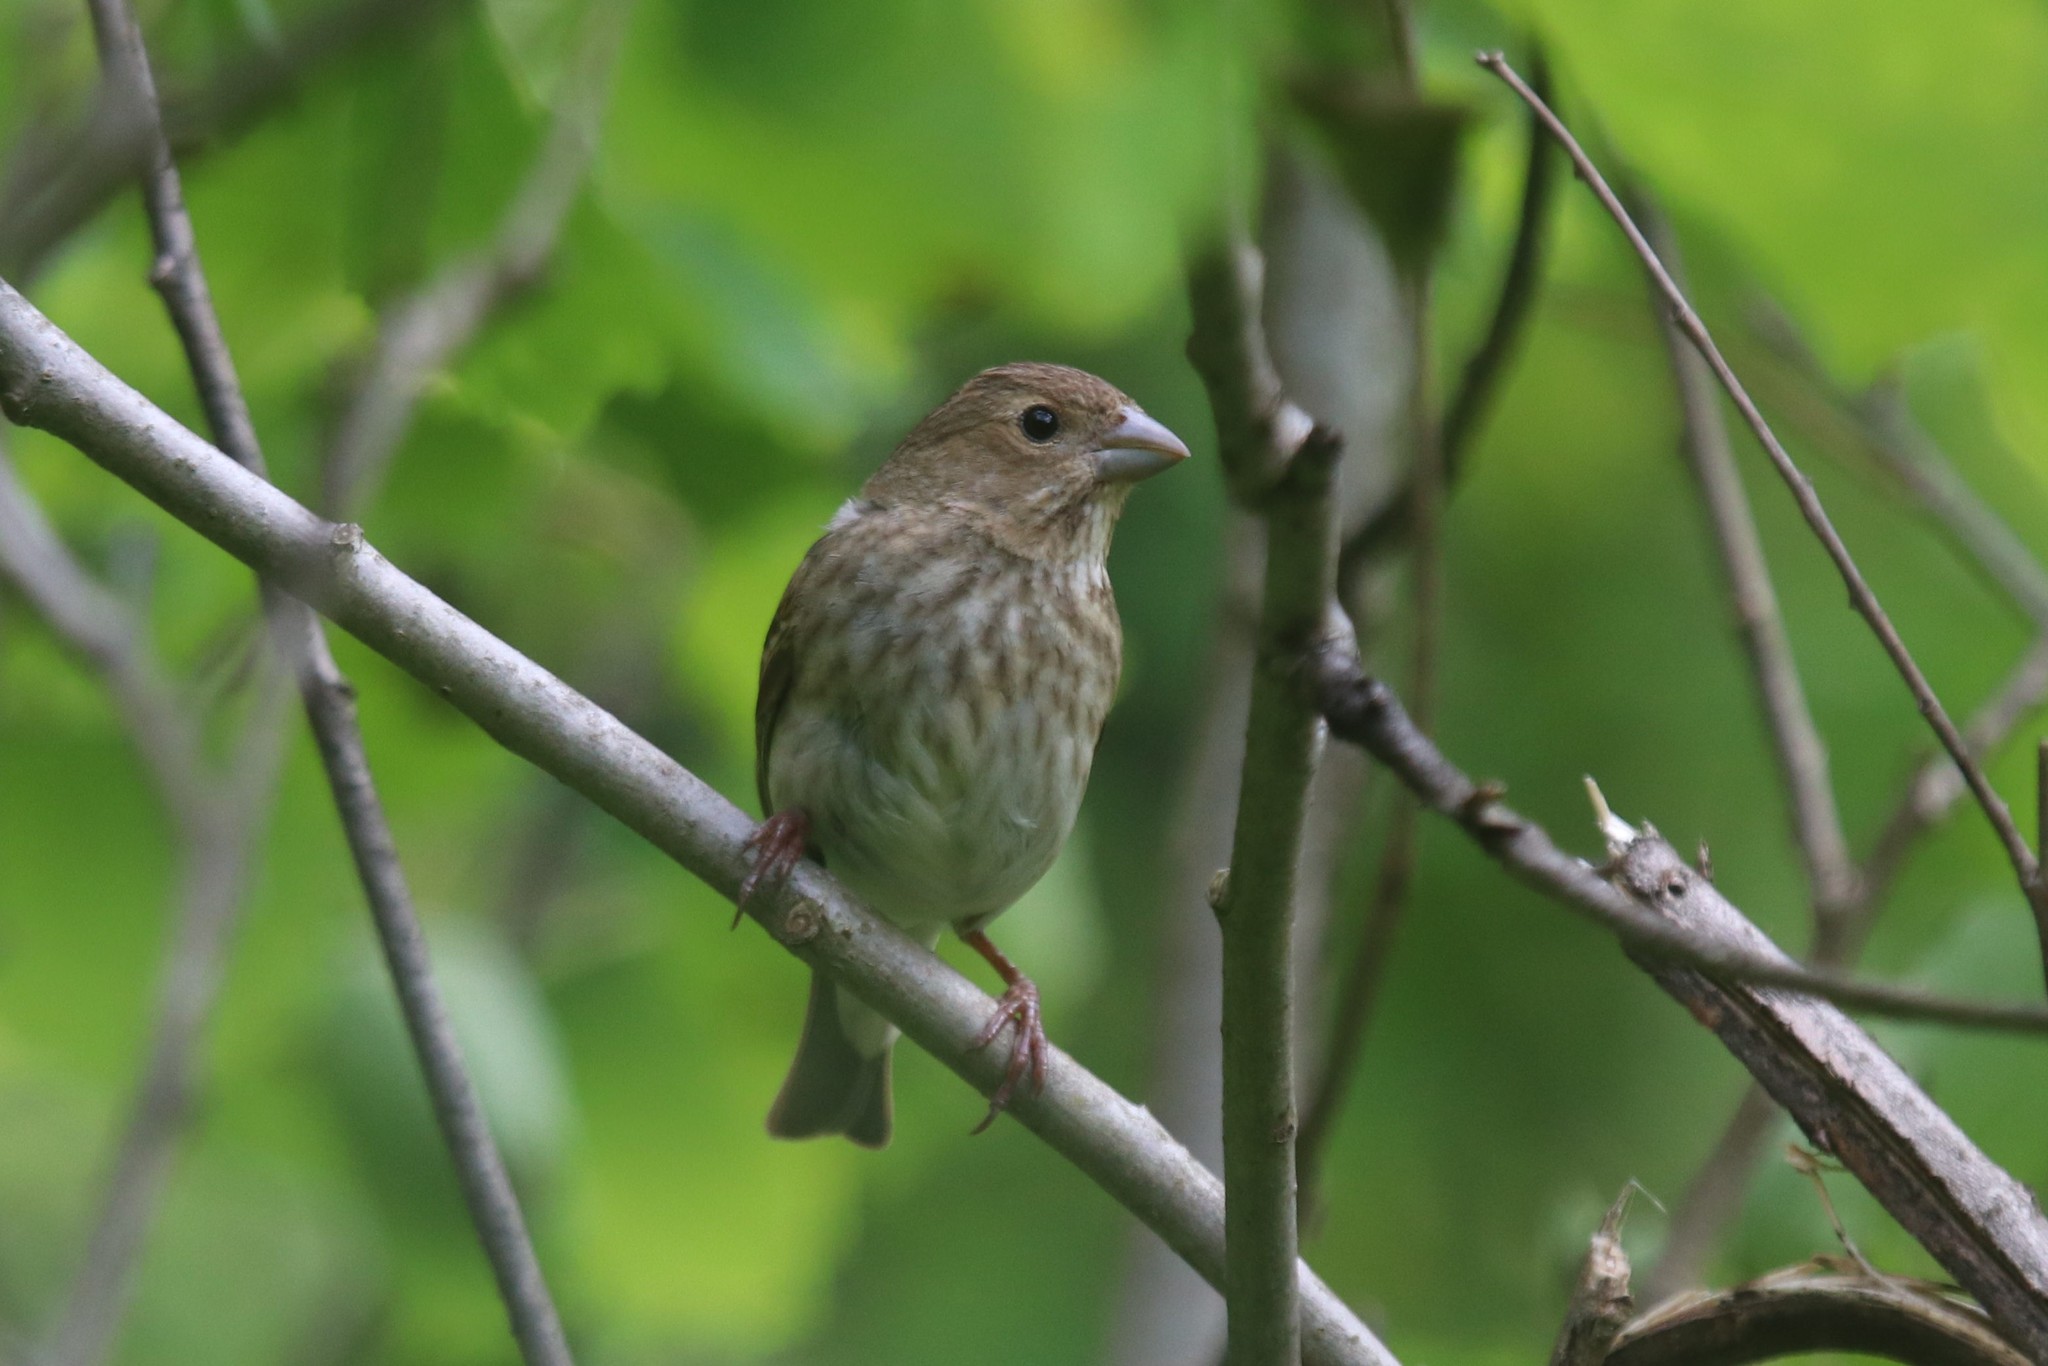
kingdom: Animalia
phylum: Chordata
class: Aves
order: Passeriformes
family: Fringillidae
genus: Carpodacus
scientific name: Carpodacus erythrinus
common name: Common rosefinch
